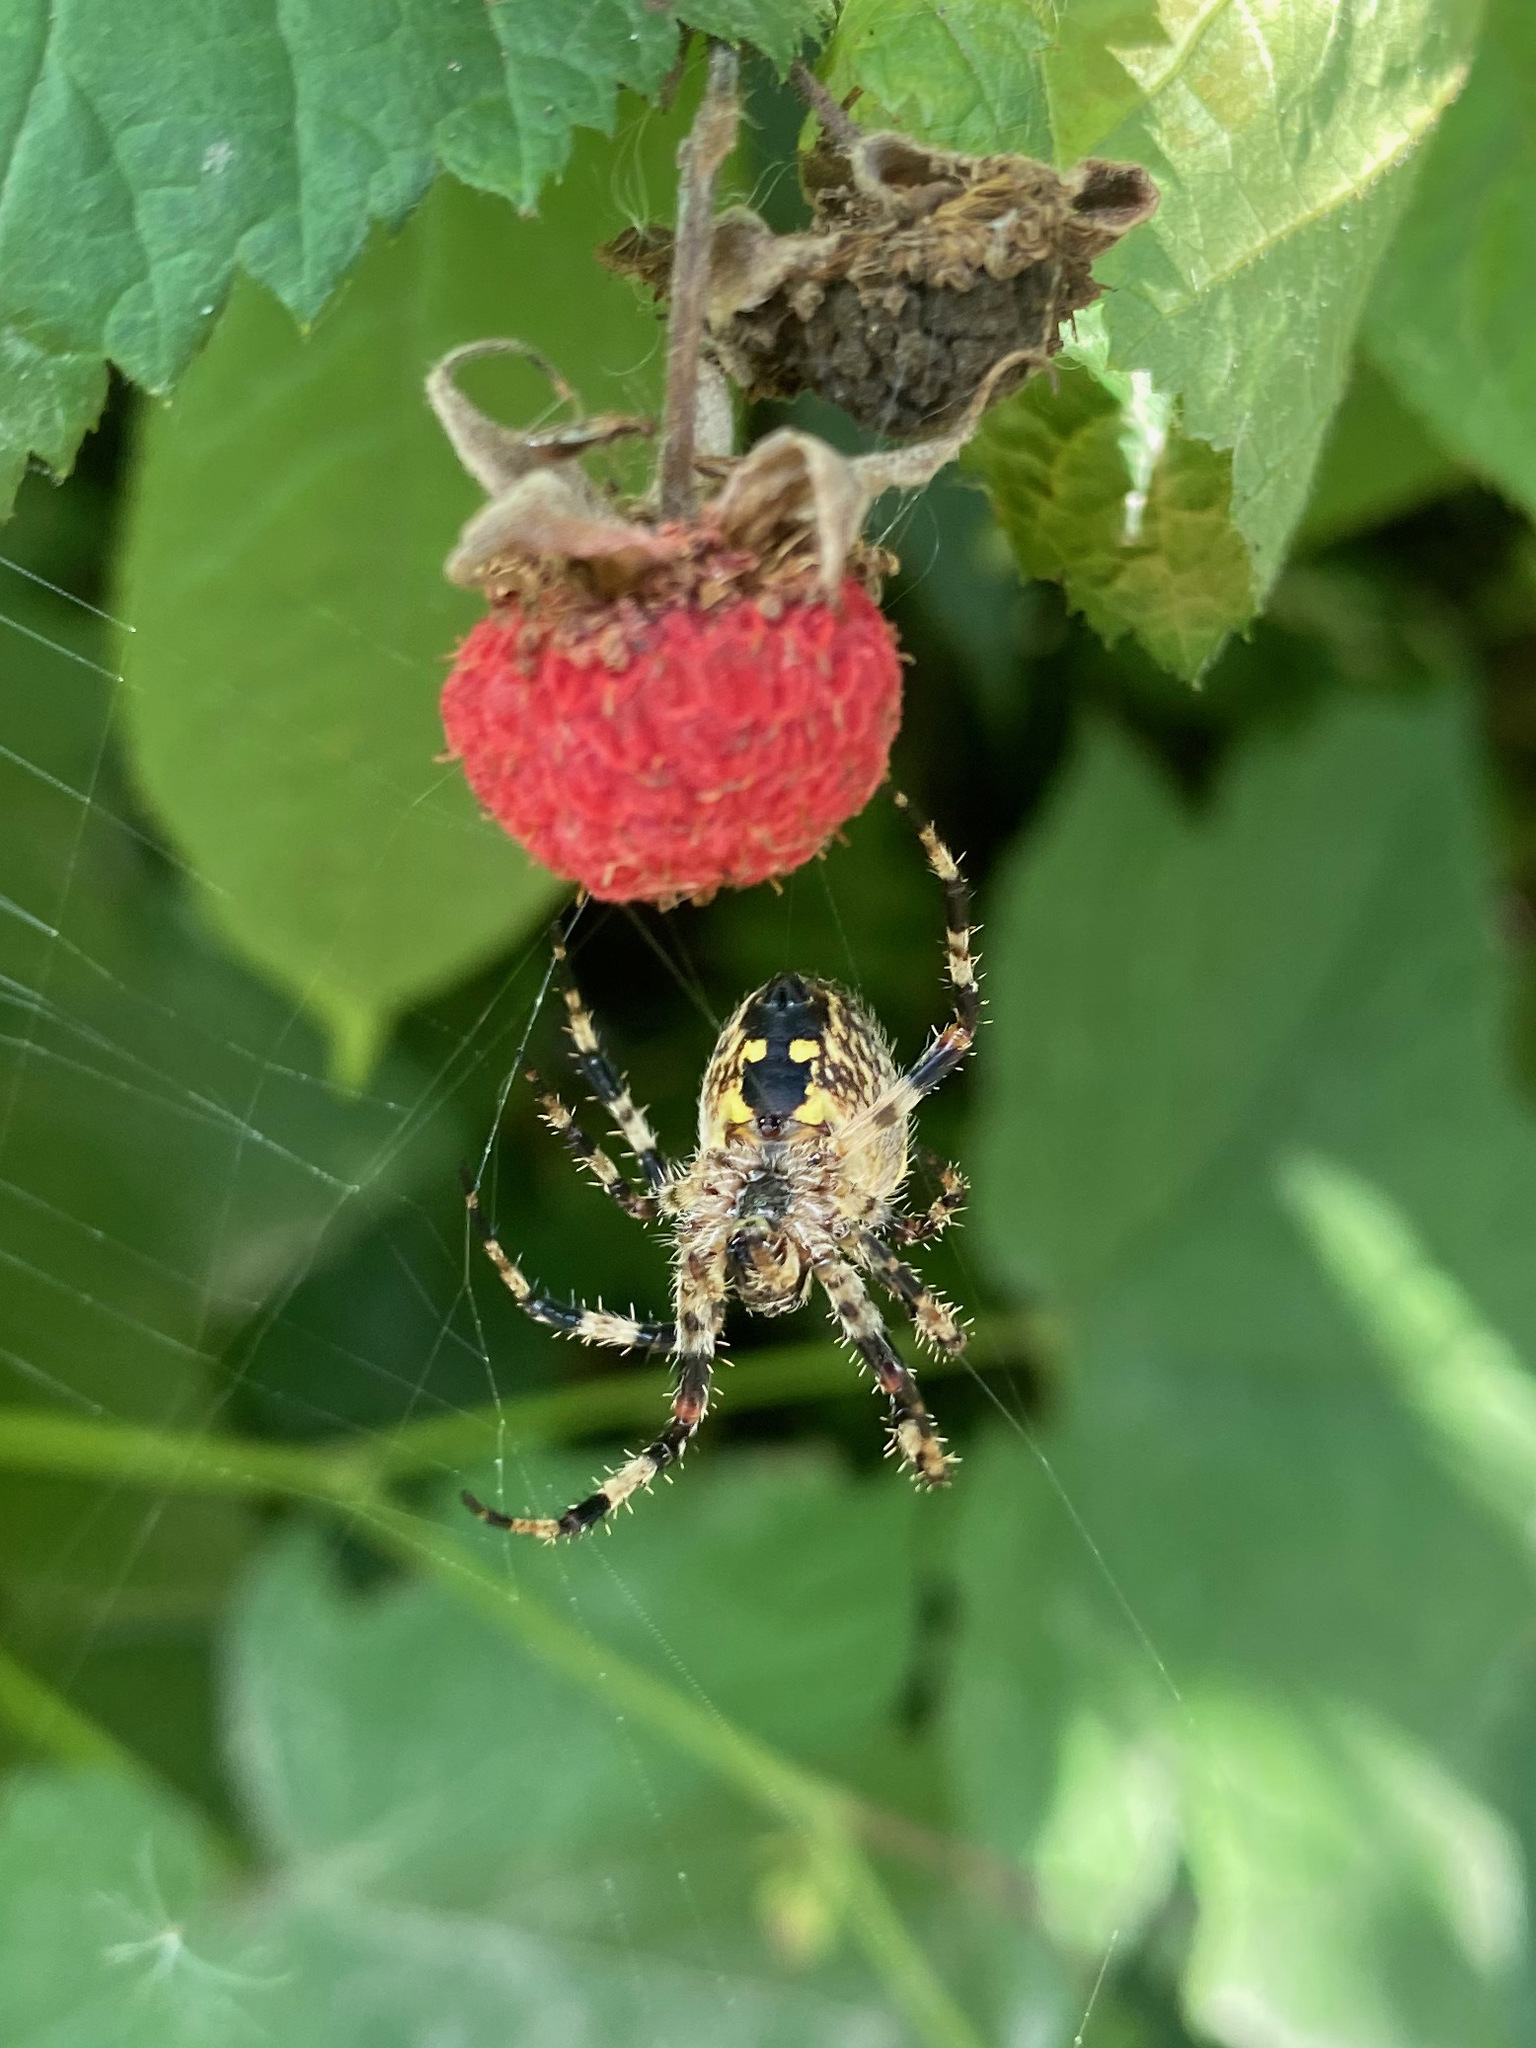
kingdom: Animalia
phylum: Arthropoda
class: Arachnida
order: Araneae
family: Araneidae
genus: Araneus
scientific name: Araneus nordmanni
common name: Nordmann's orbweaver
